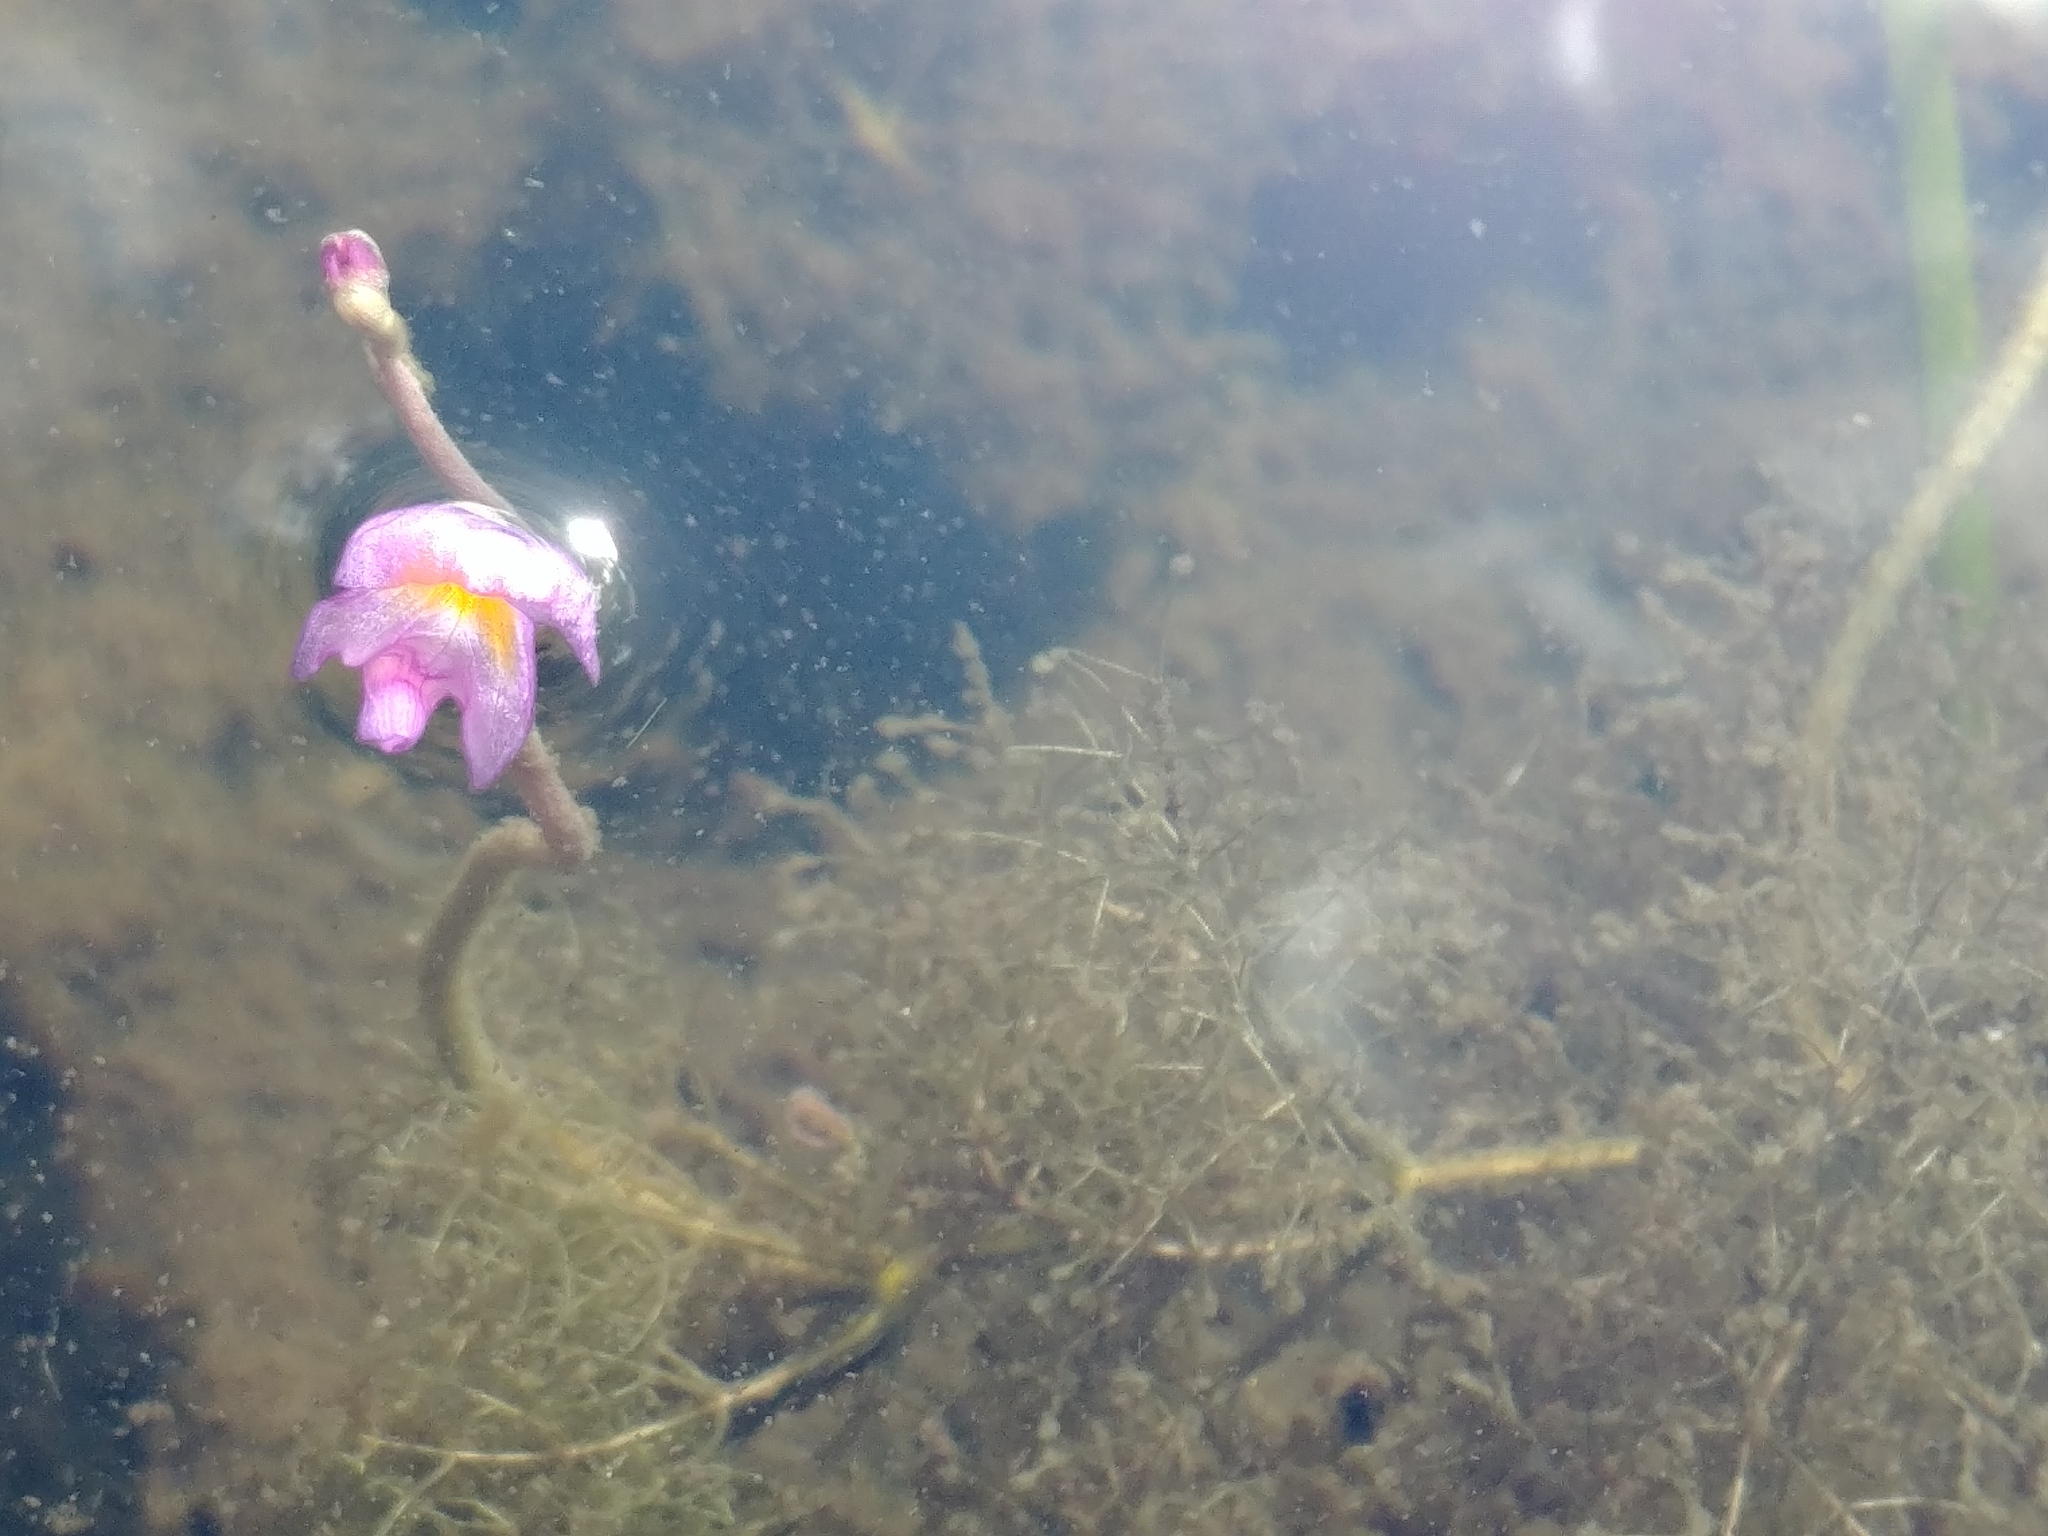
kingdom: Plantae
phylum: Tracheophyta
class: Magnoliopsida
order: Lamiales
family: Lentibulariaceae
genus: Utricularia
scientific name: Utricularia purpurea
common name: Eastern purple bladderwort
